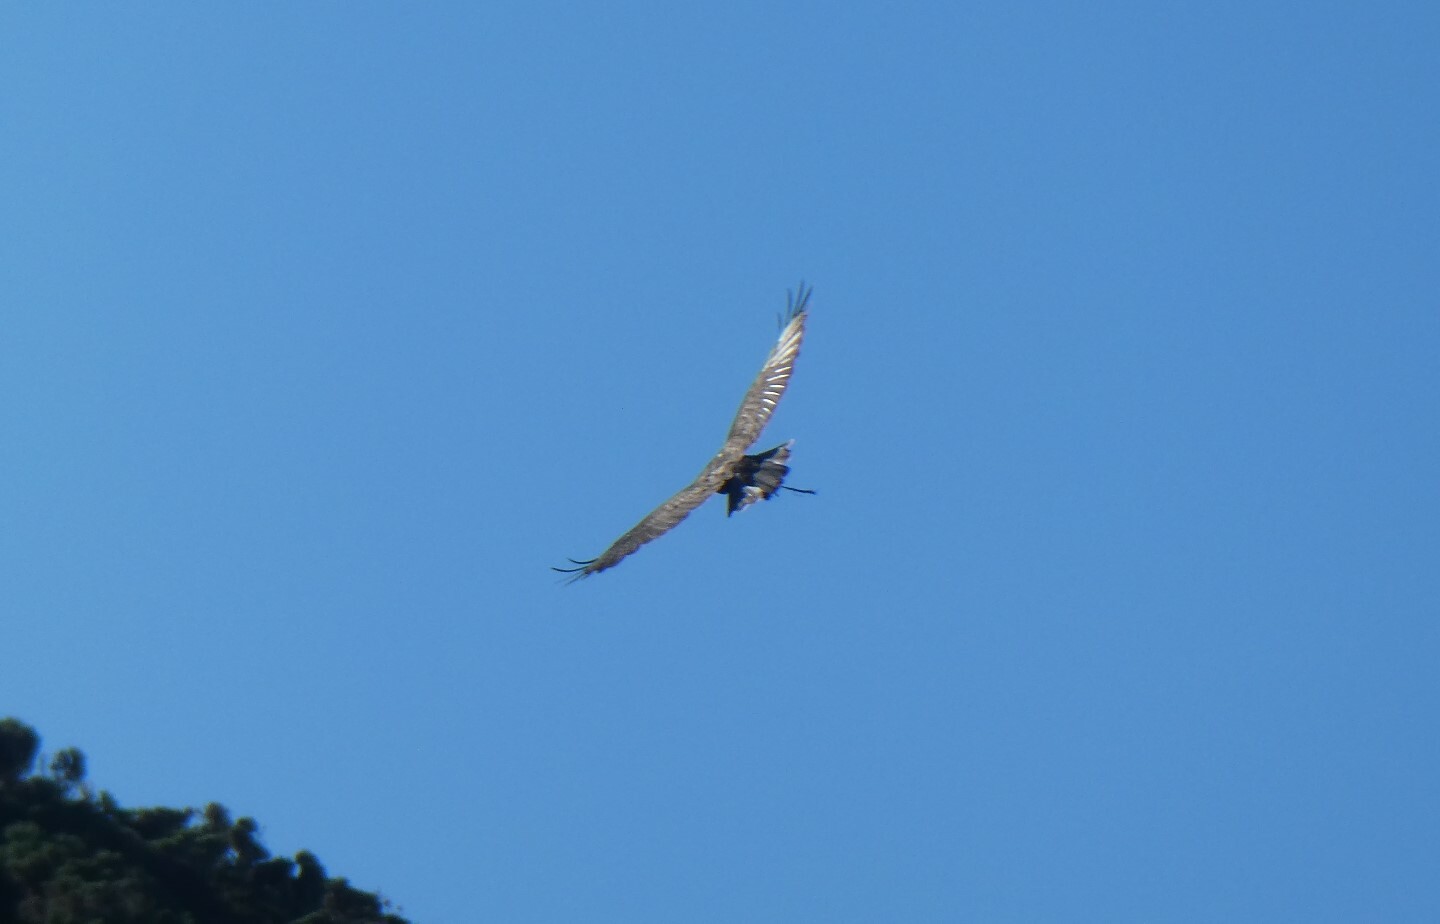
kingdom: Animalia
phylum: Chordata
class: Aves
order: Accipitriformes
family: Accipitridae
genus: Aquila
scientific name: Aquila chrysaetos
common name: Golden eagle
